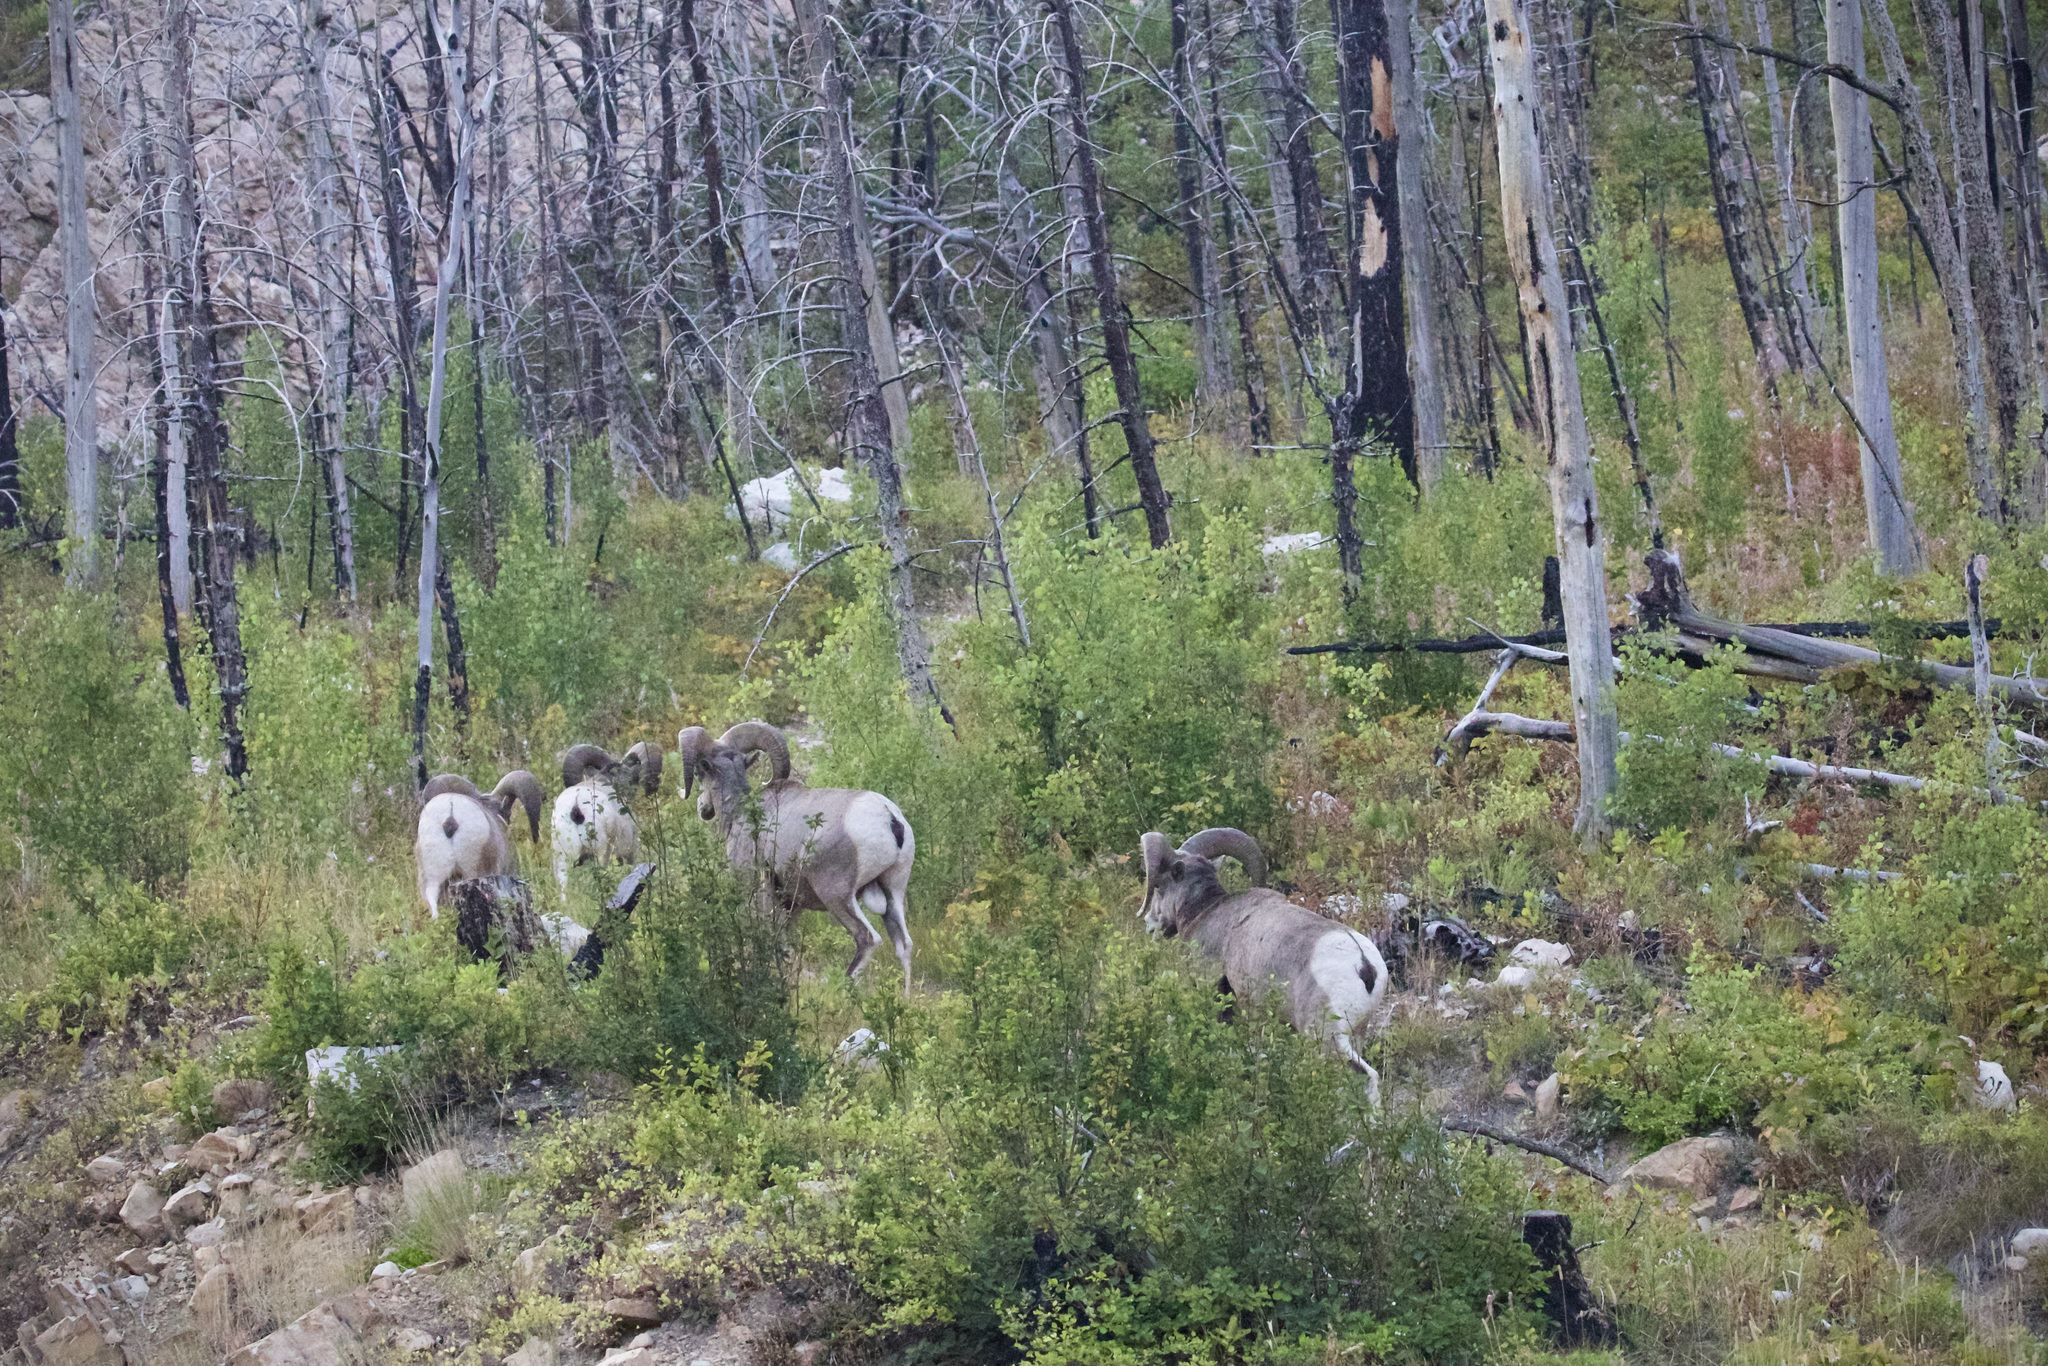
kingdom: Animalia
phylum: Chordata
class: Mammalia
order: Artiodactyla
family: Bovidae
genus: Ovis
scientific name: Ovis canadensis
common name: Bighorn sheep
